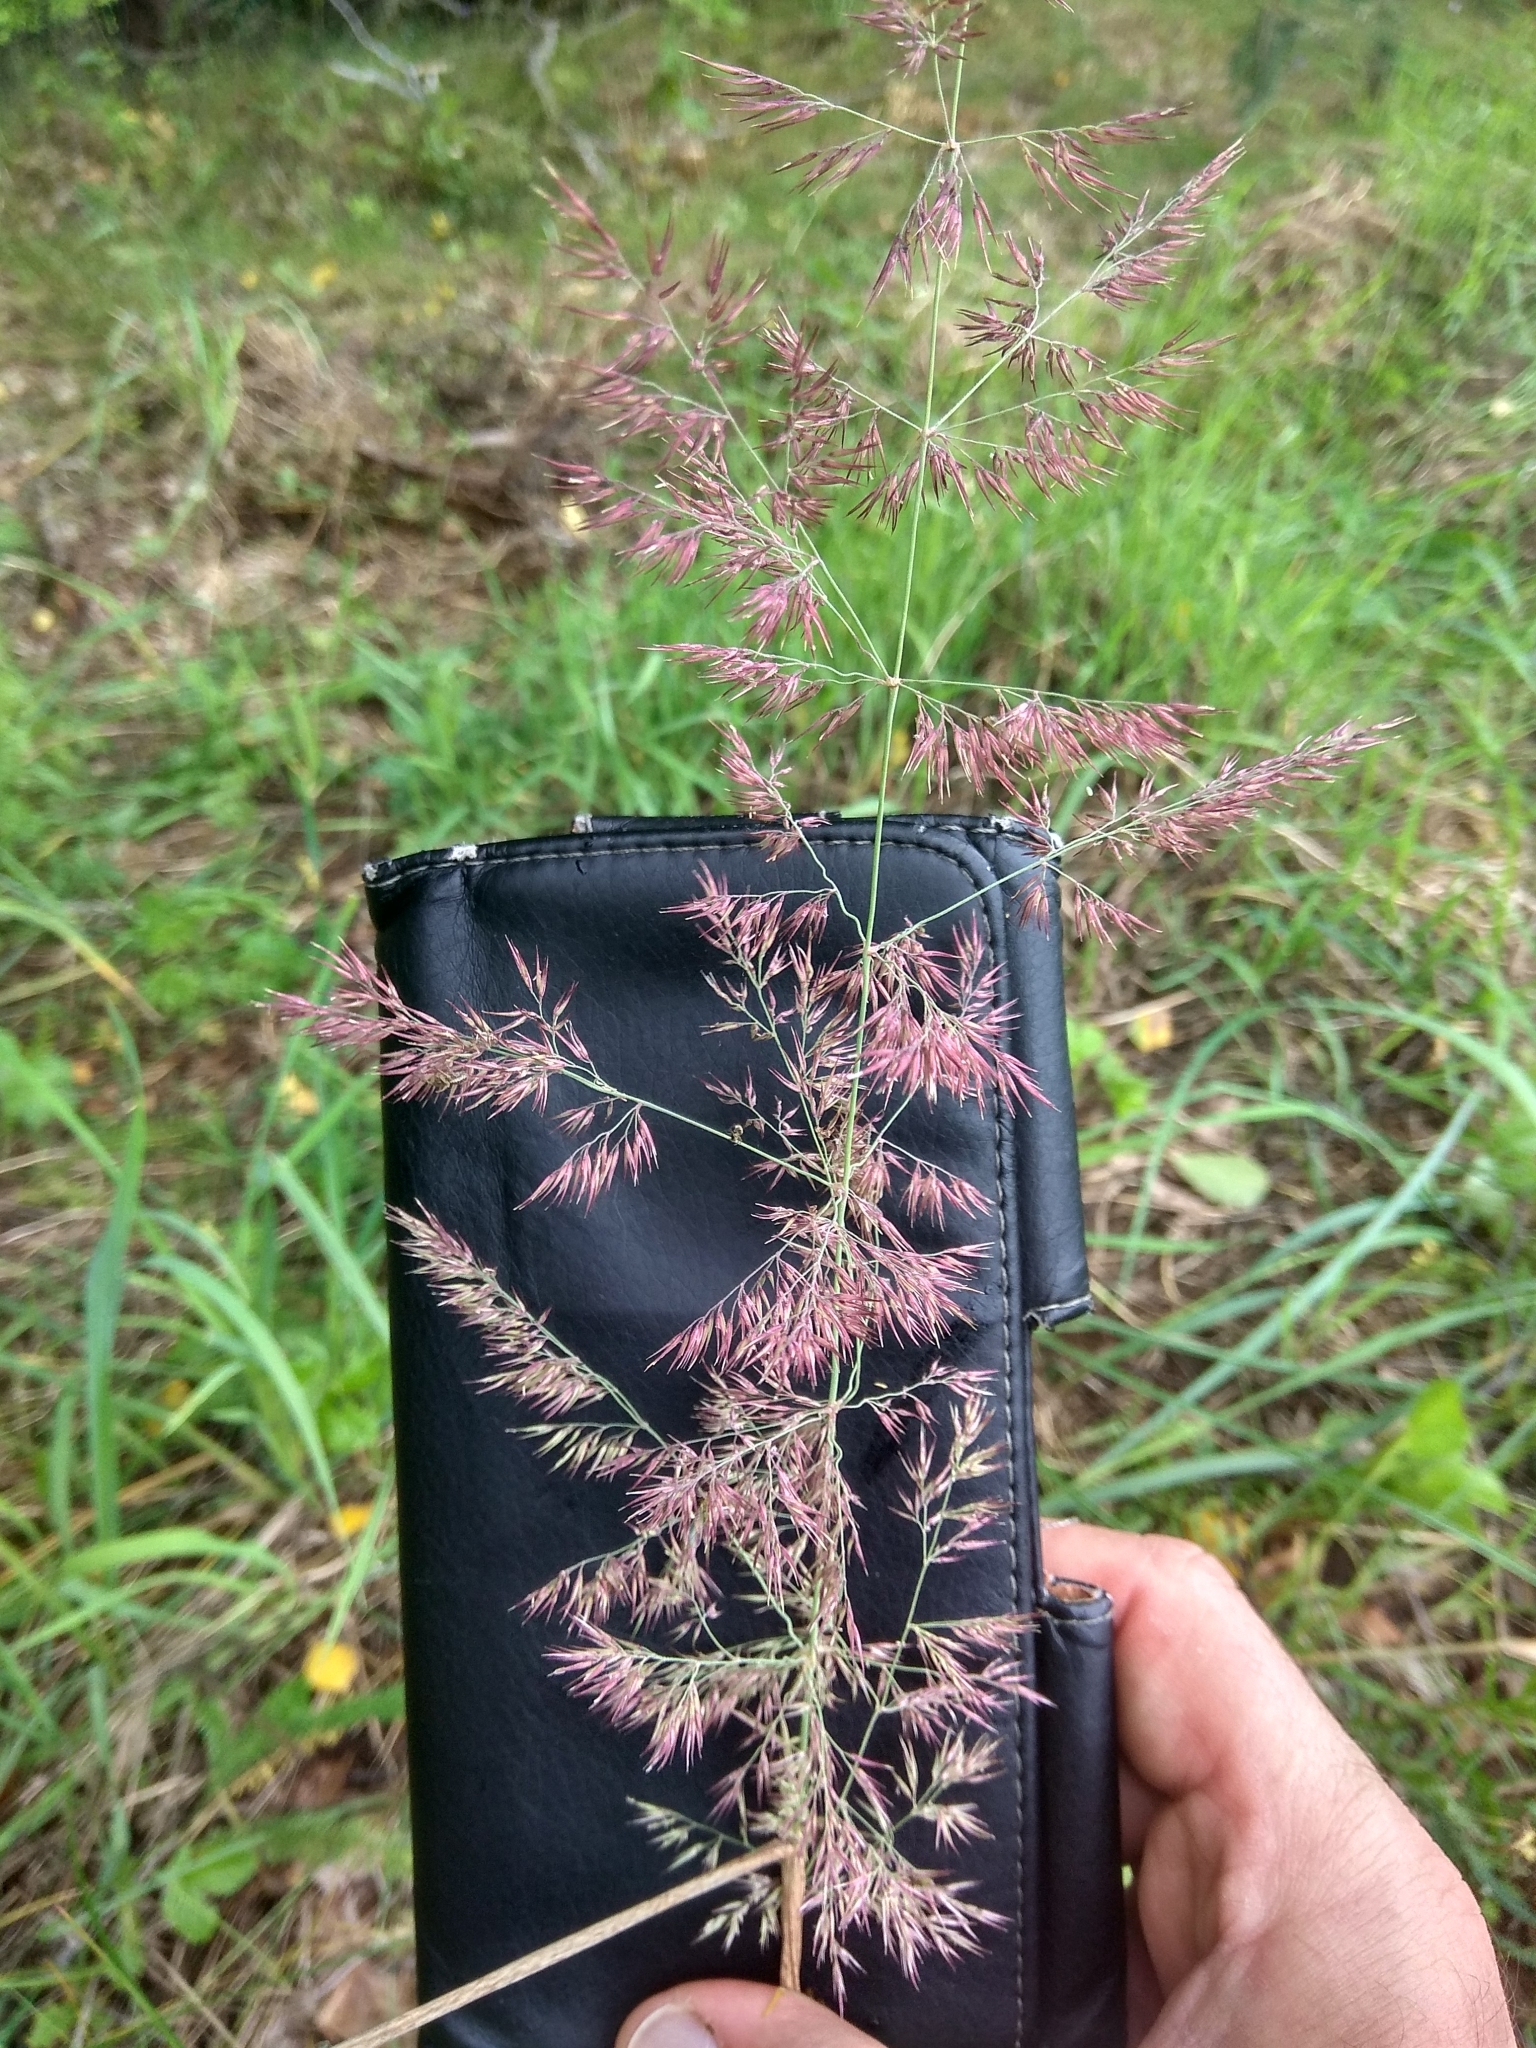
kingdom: Plantae
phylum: Tracheophyta
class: Liliopsida
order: Poales
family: Poaceae
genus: Calamagrostis
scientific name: Calamagrostis epigejos
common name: Wood small-reed
